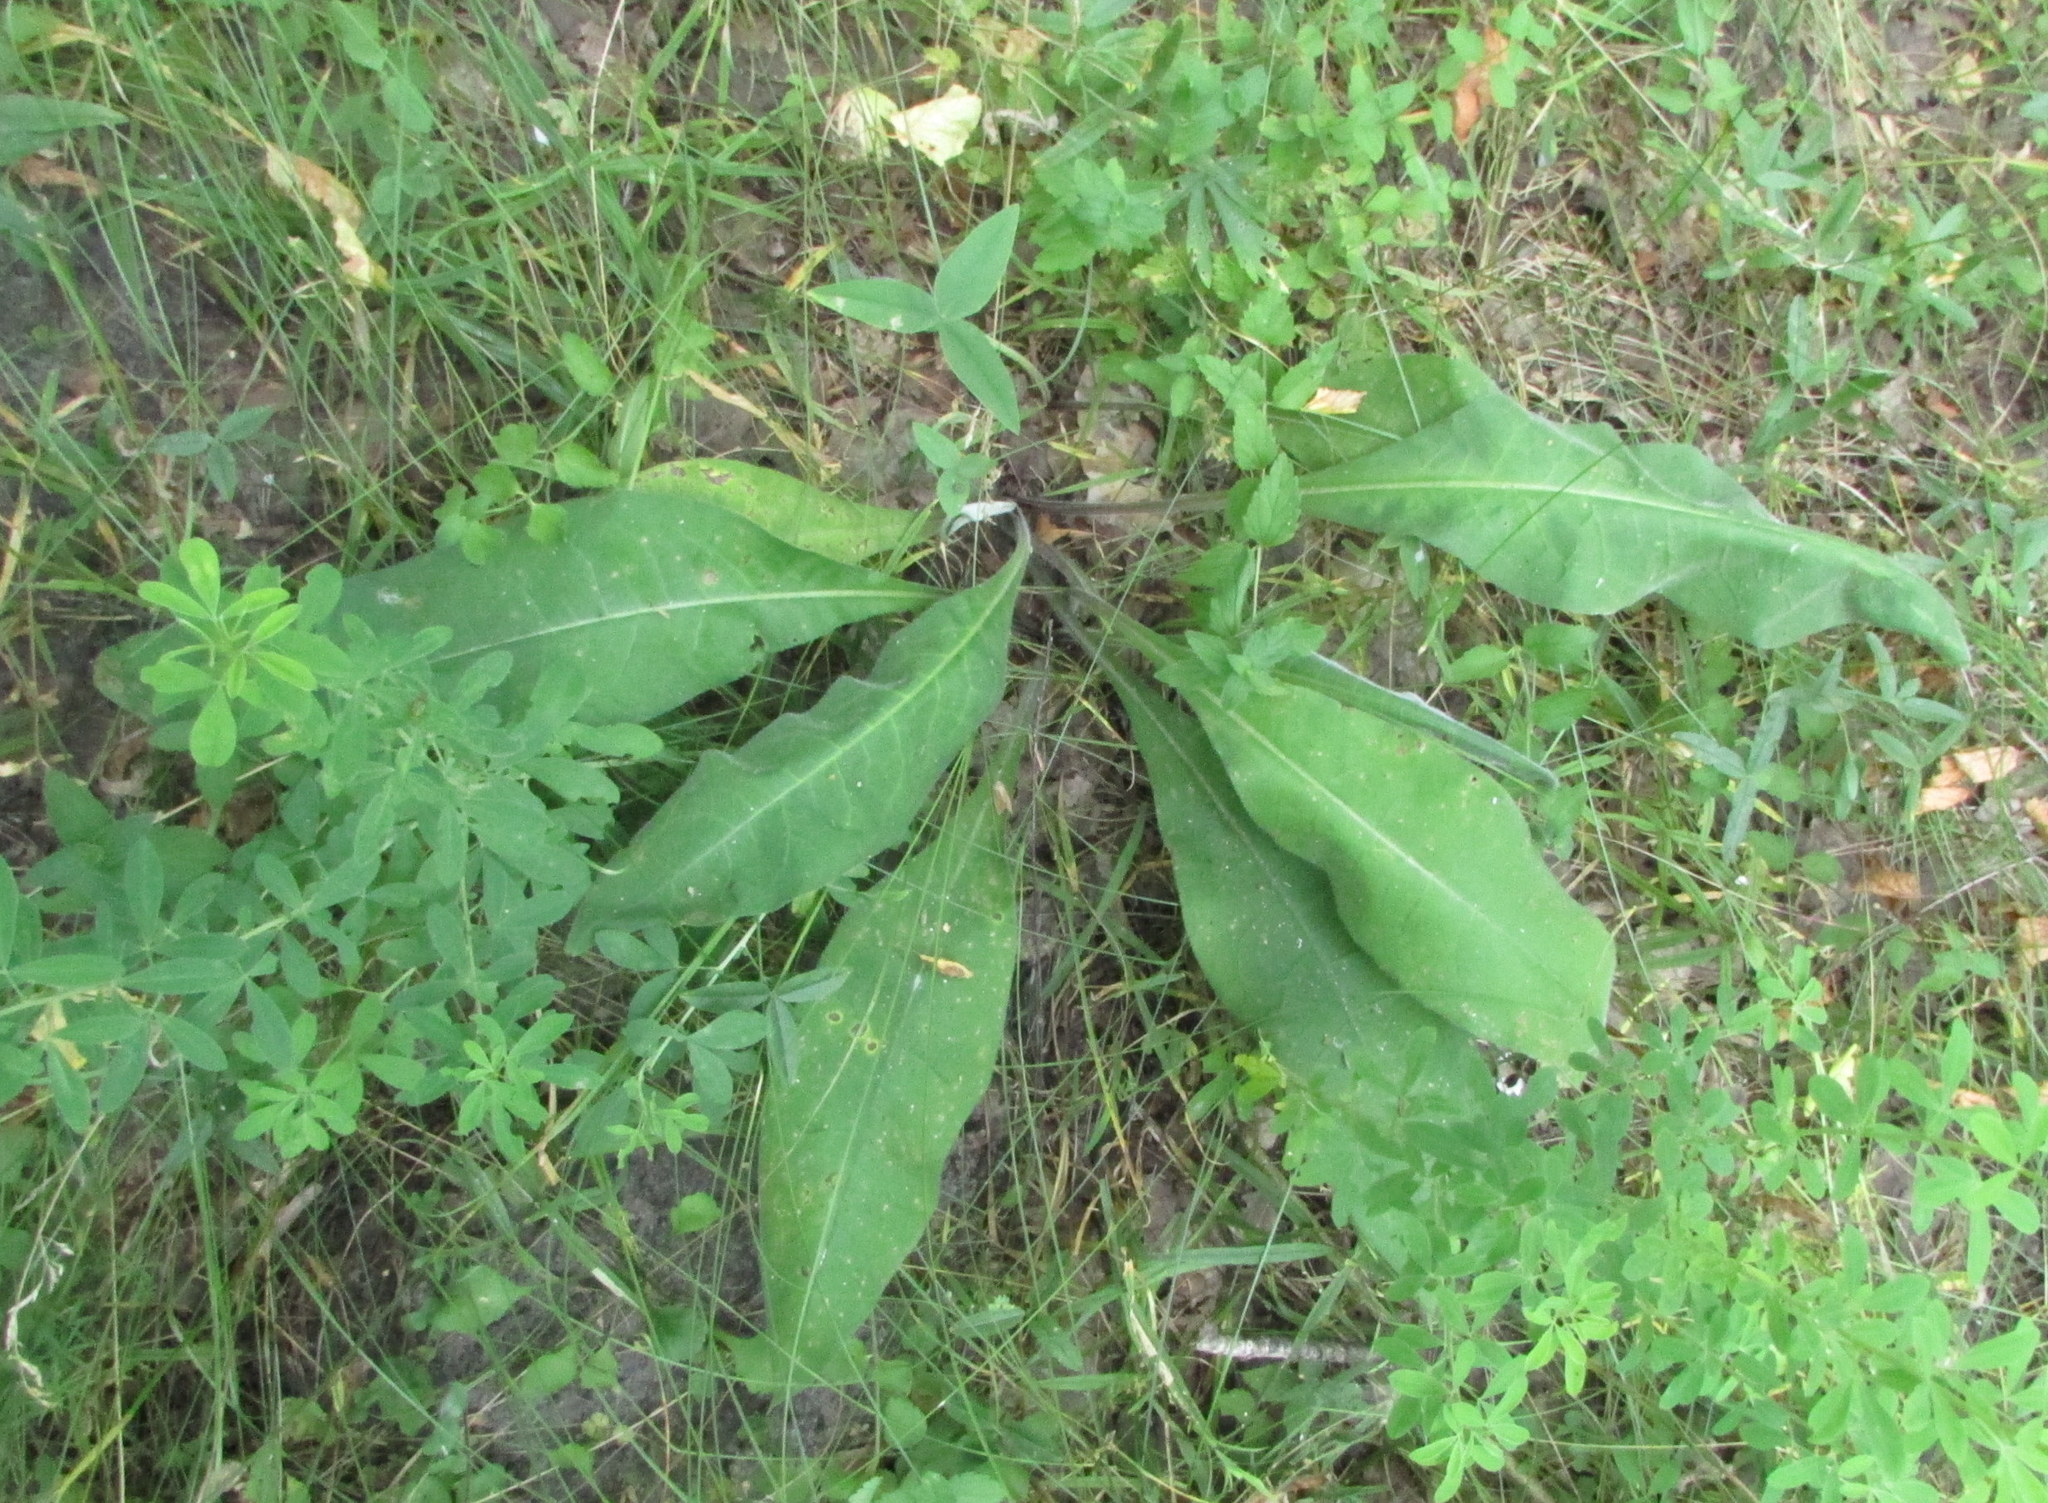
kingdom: Plantae
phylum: Tracheophyta
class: Magnoliopsida
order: Boraginales
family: Boraginaceae
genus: Pulmonaria
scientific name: Pulmonaria mollis
